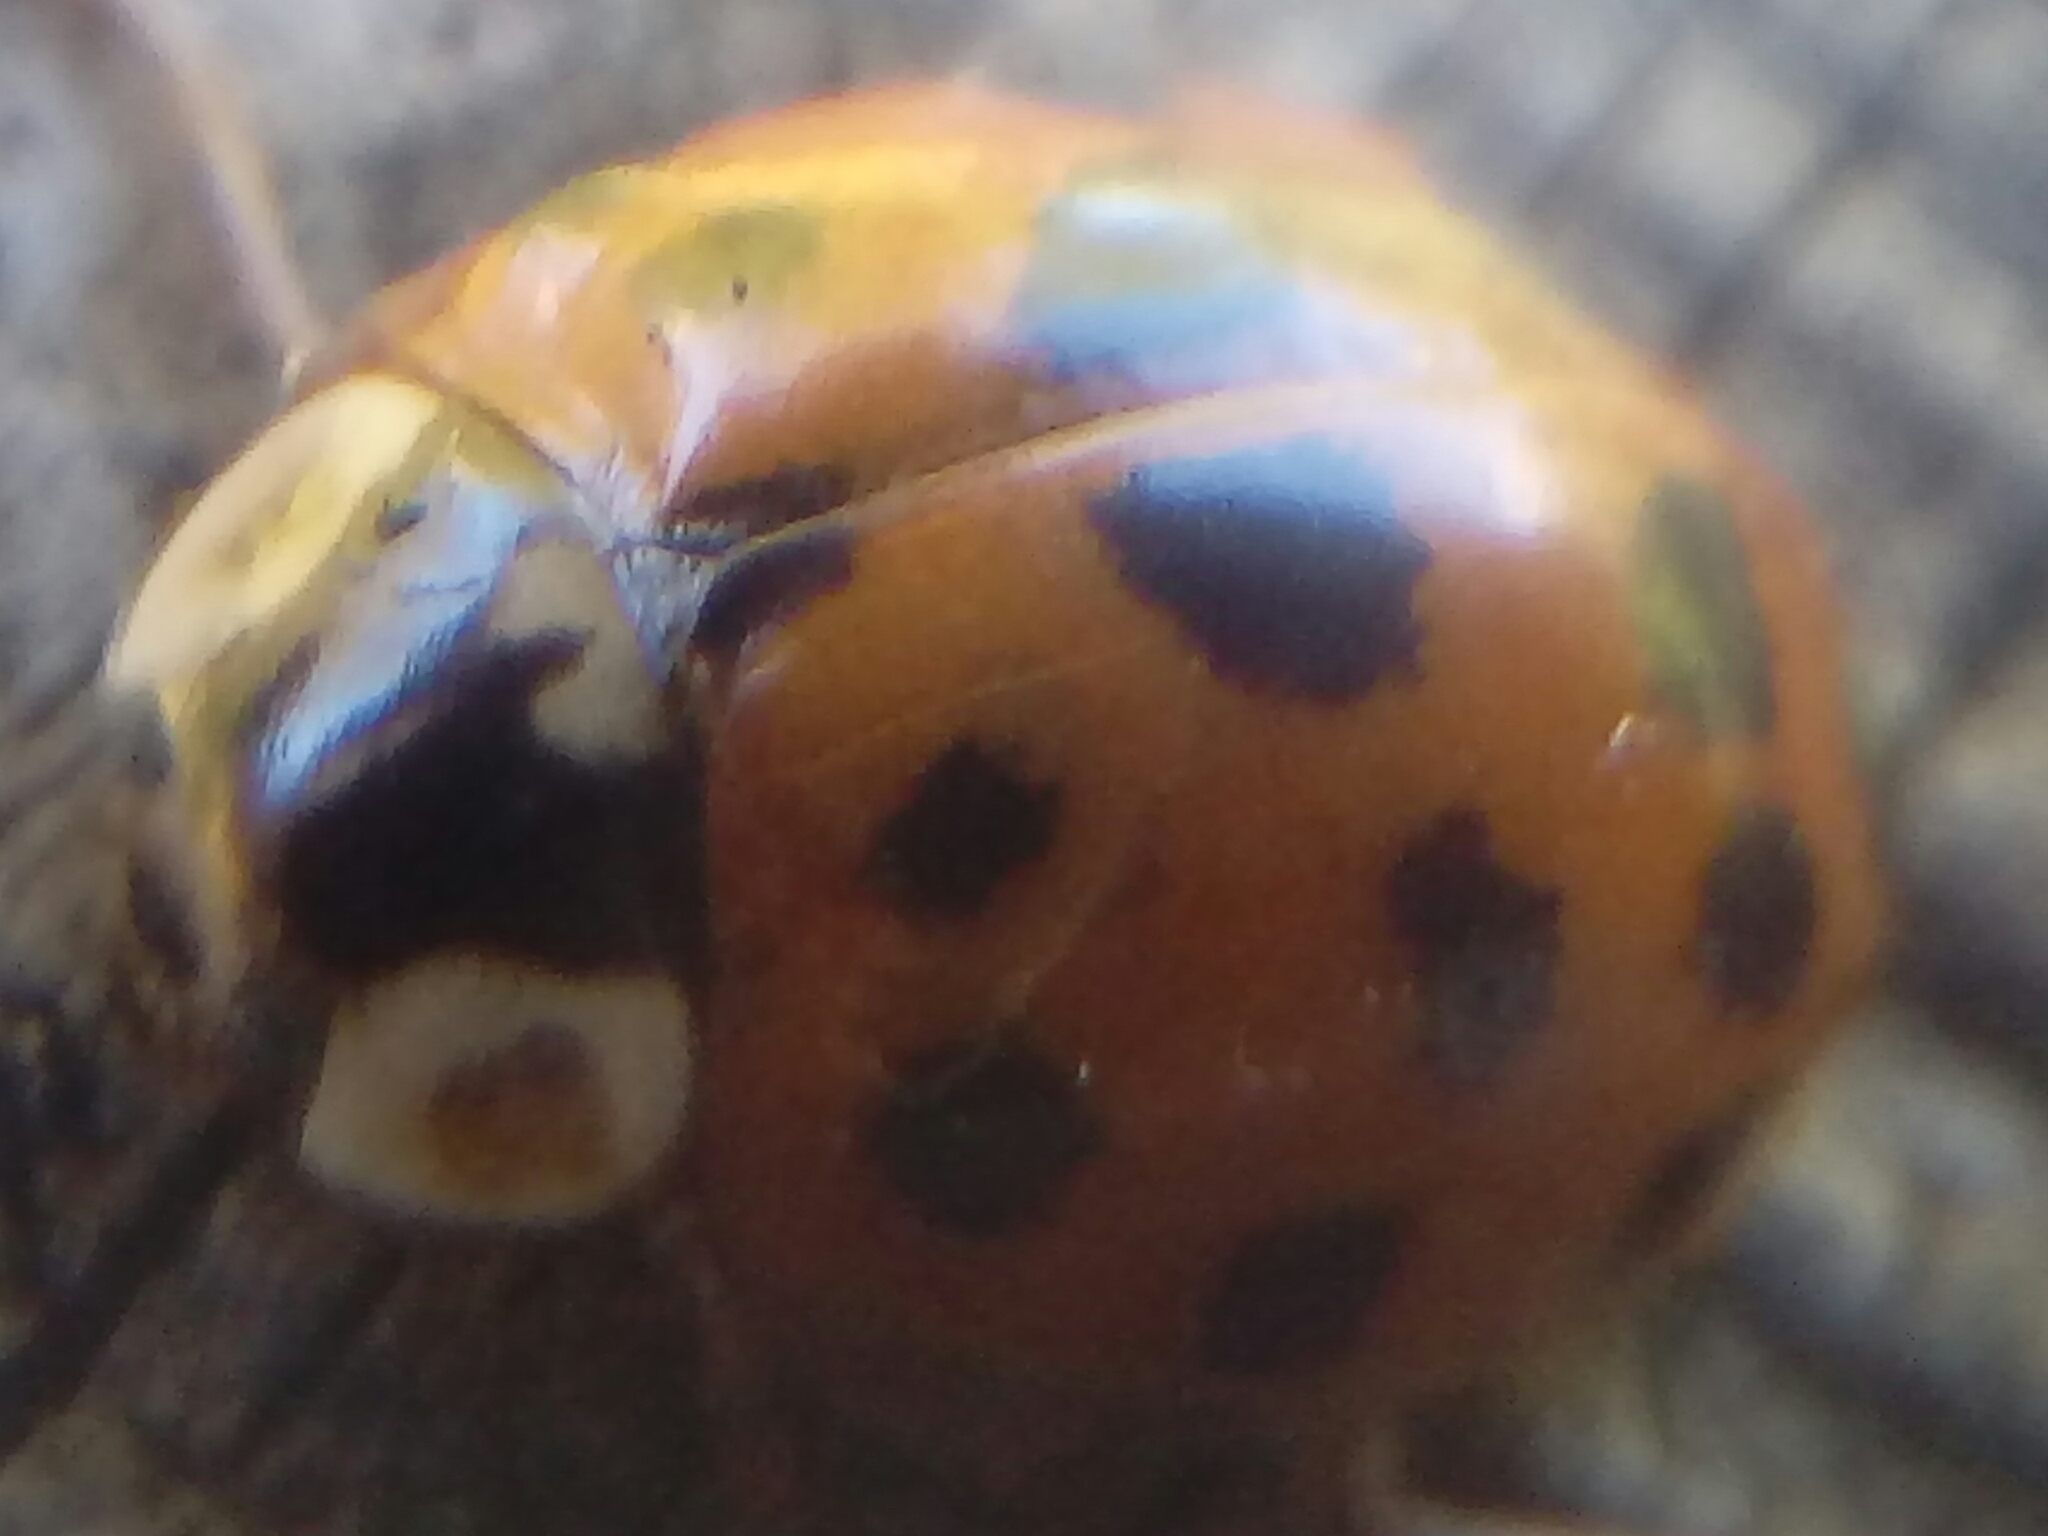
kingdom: Animalia
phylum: Arthropoda
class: Insecta
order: Coleoptera
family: Coccinellidae
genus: Harmonia
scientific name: Harmonia axyridis
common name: Harlequin ladybird
